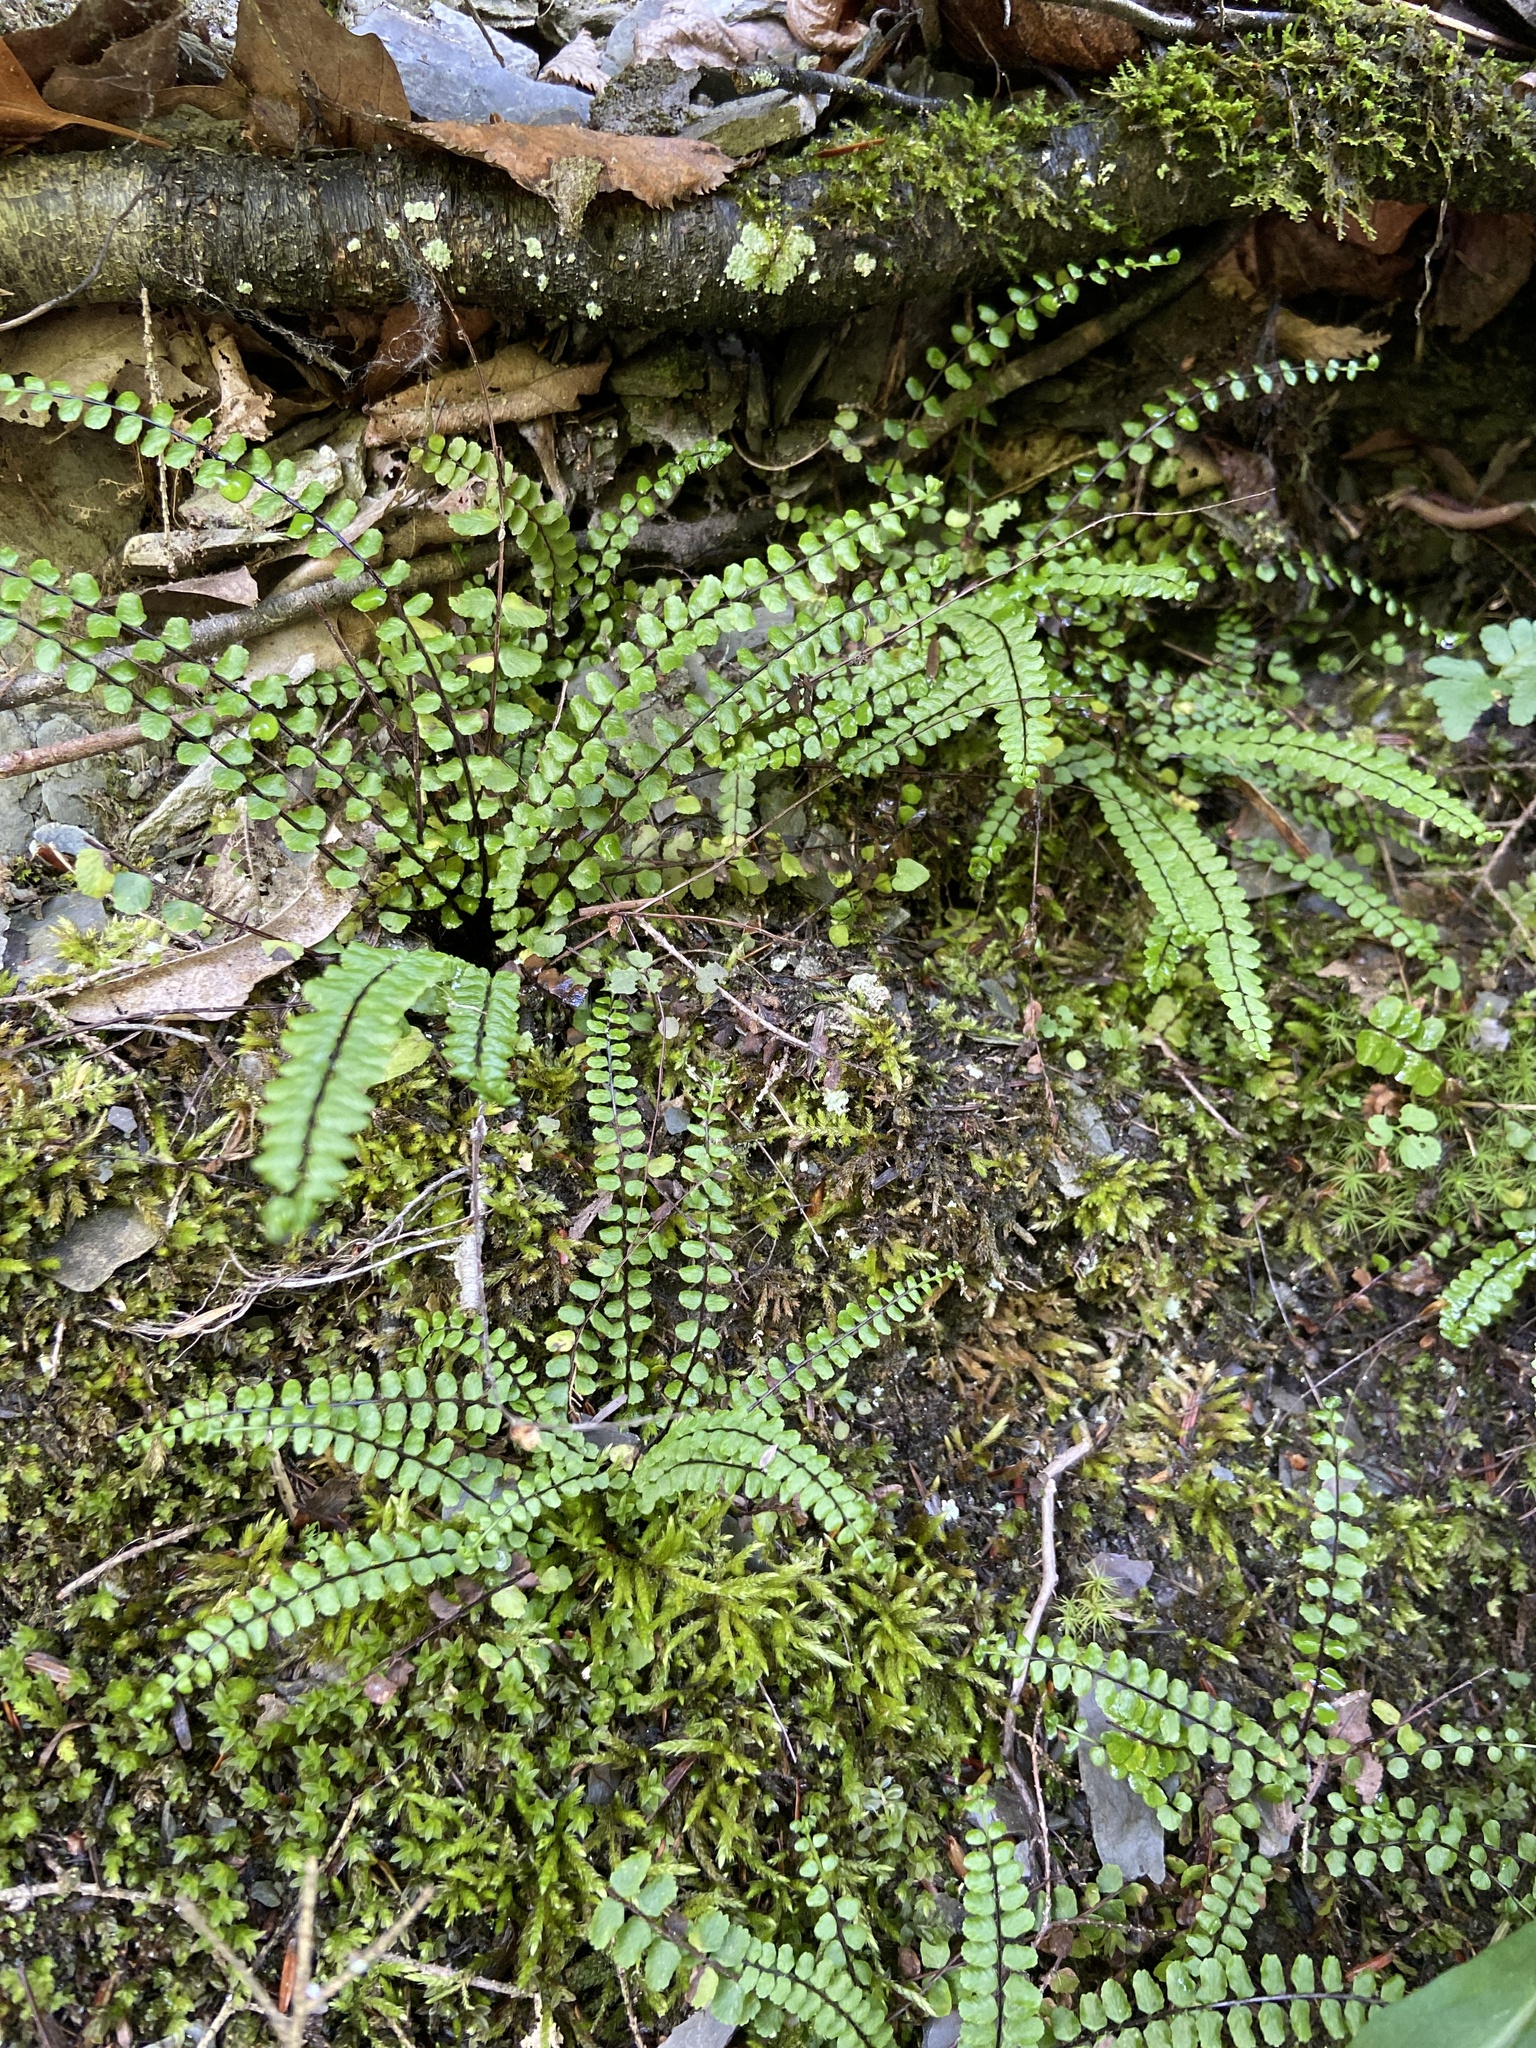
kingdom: Plantae
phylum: Tracheophyta
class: Polypodiopsida
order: Polypodiales
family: Aspleniaceae
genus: Asplenium
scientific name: Asplenium trichomanes
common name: Maidenhair spleenwort
